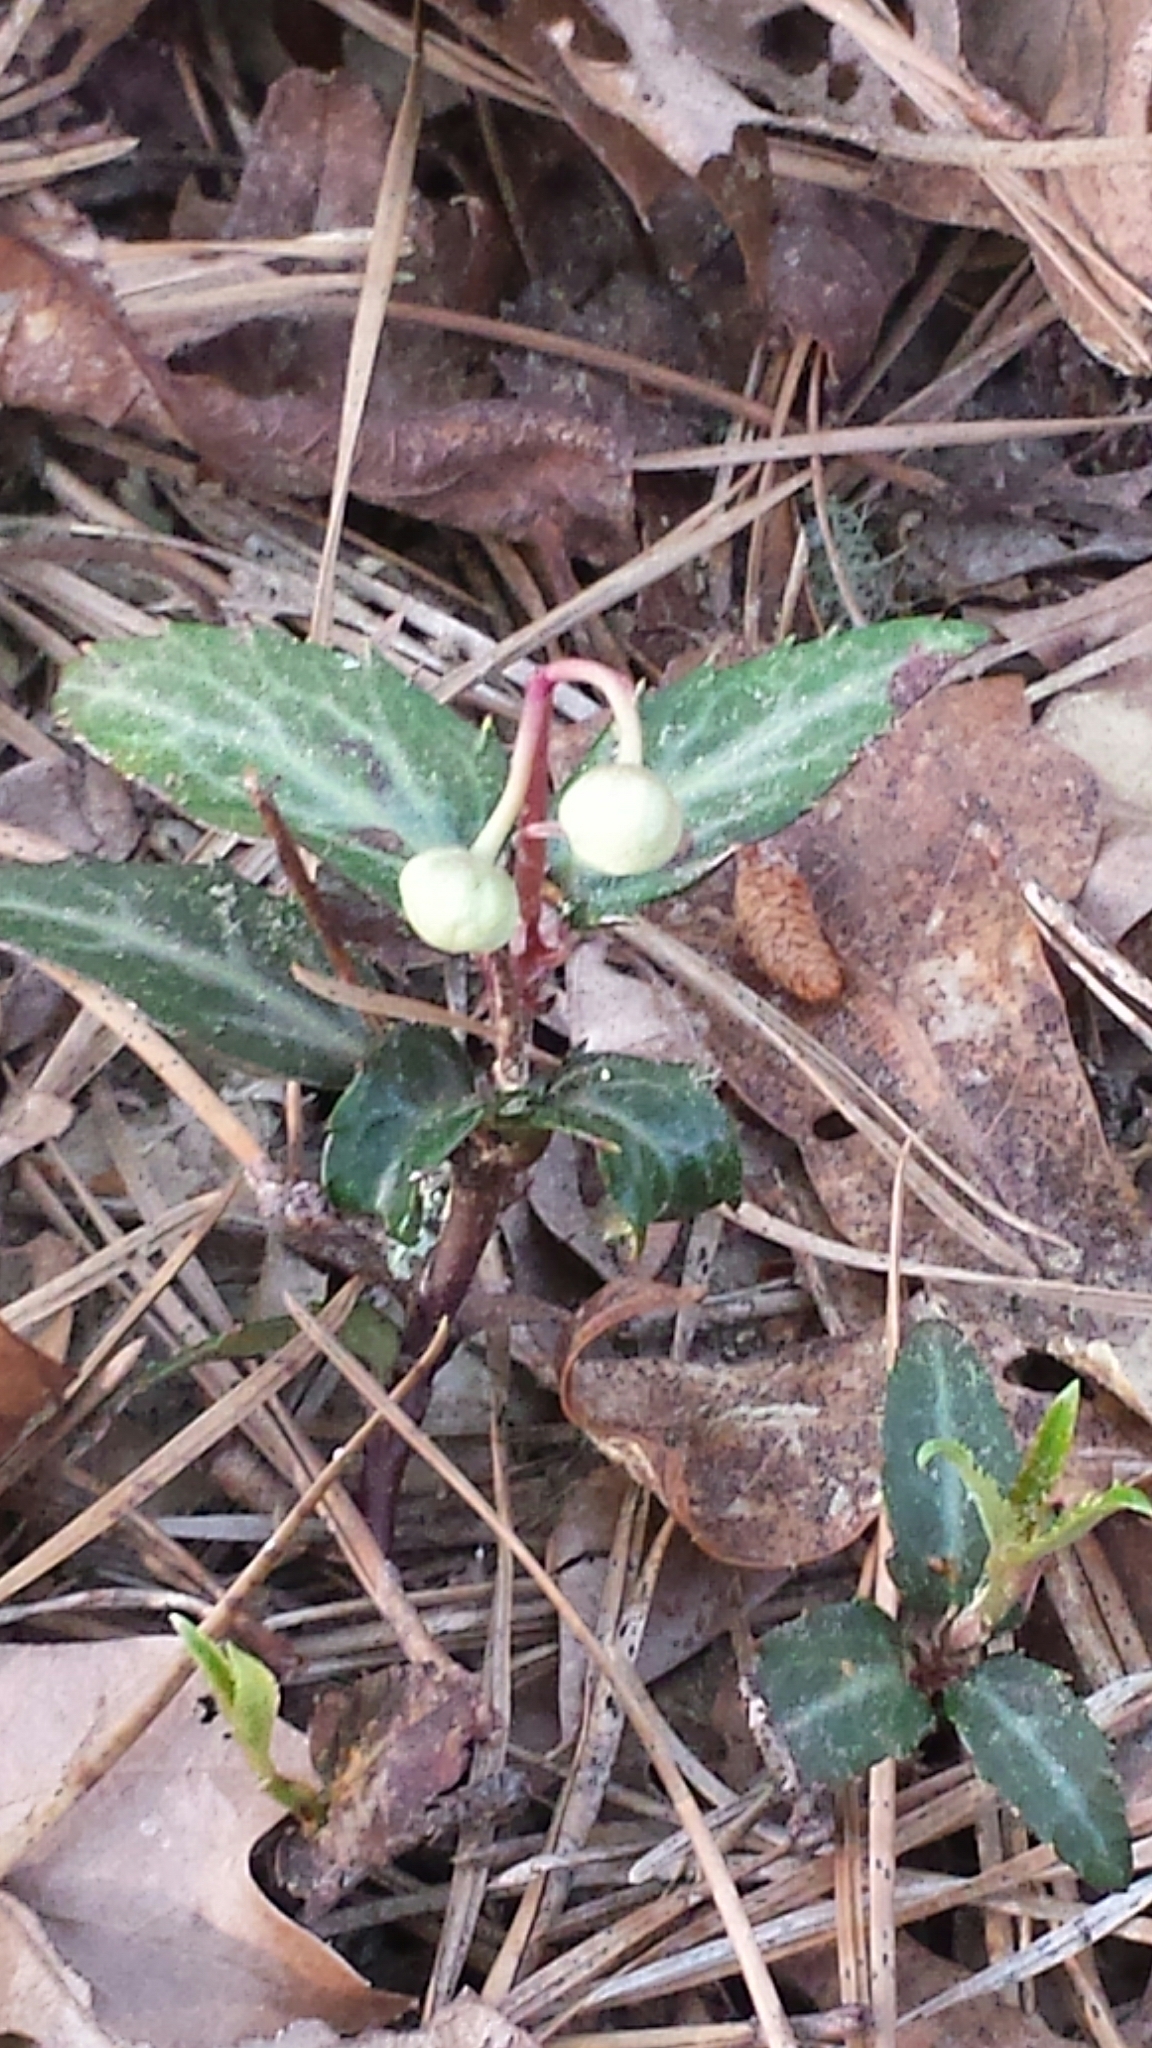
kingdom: Plantae
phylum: Tracheophyta
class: Magnoliopsida
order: Ericales
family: Ericaceae
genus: Chimaphila
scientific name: Chimaphila maculata
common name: Spotted pipsissewa
